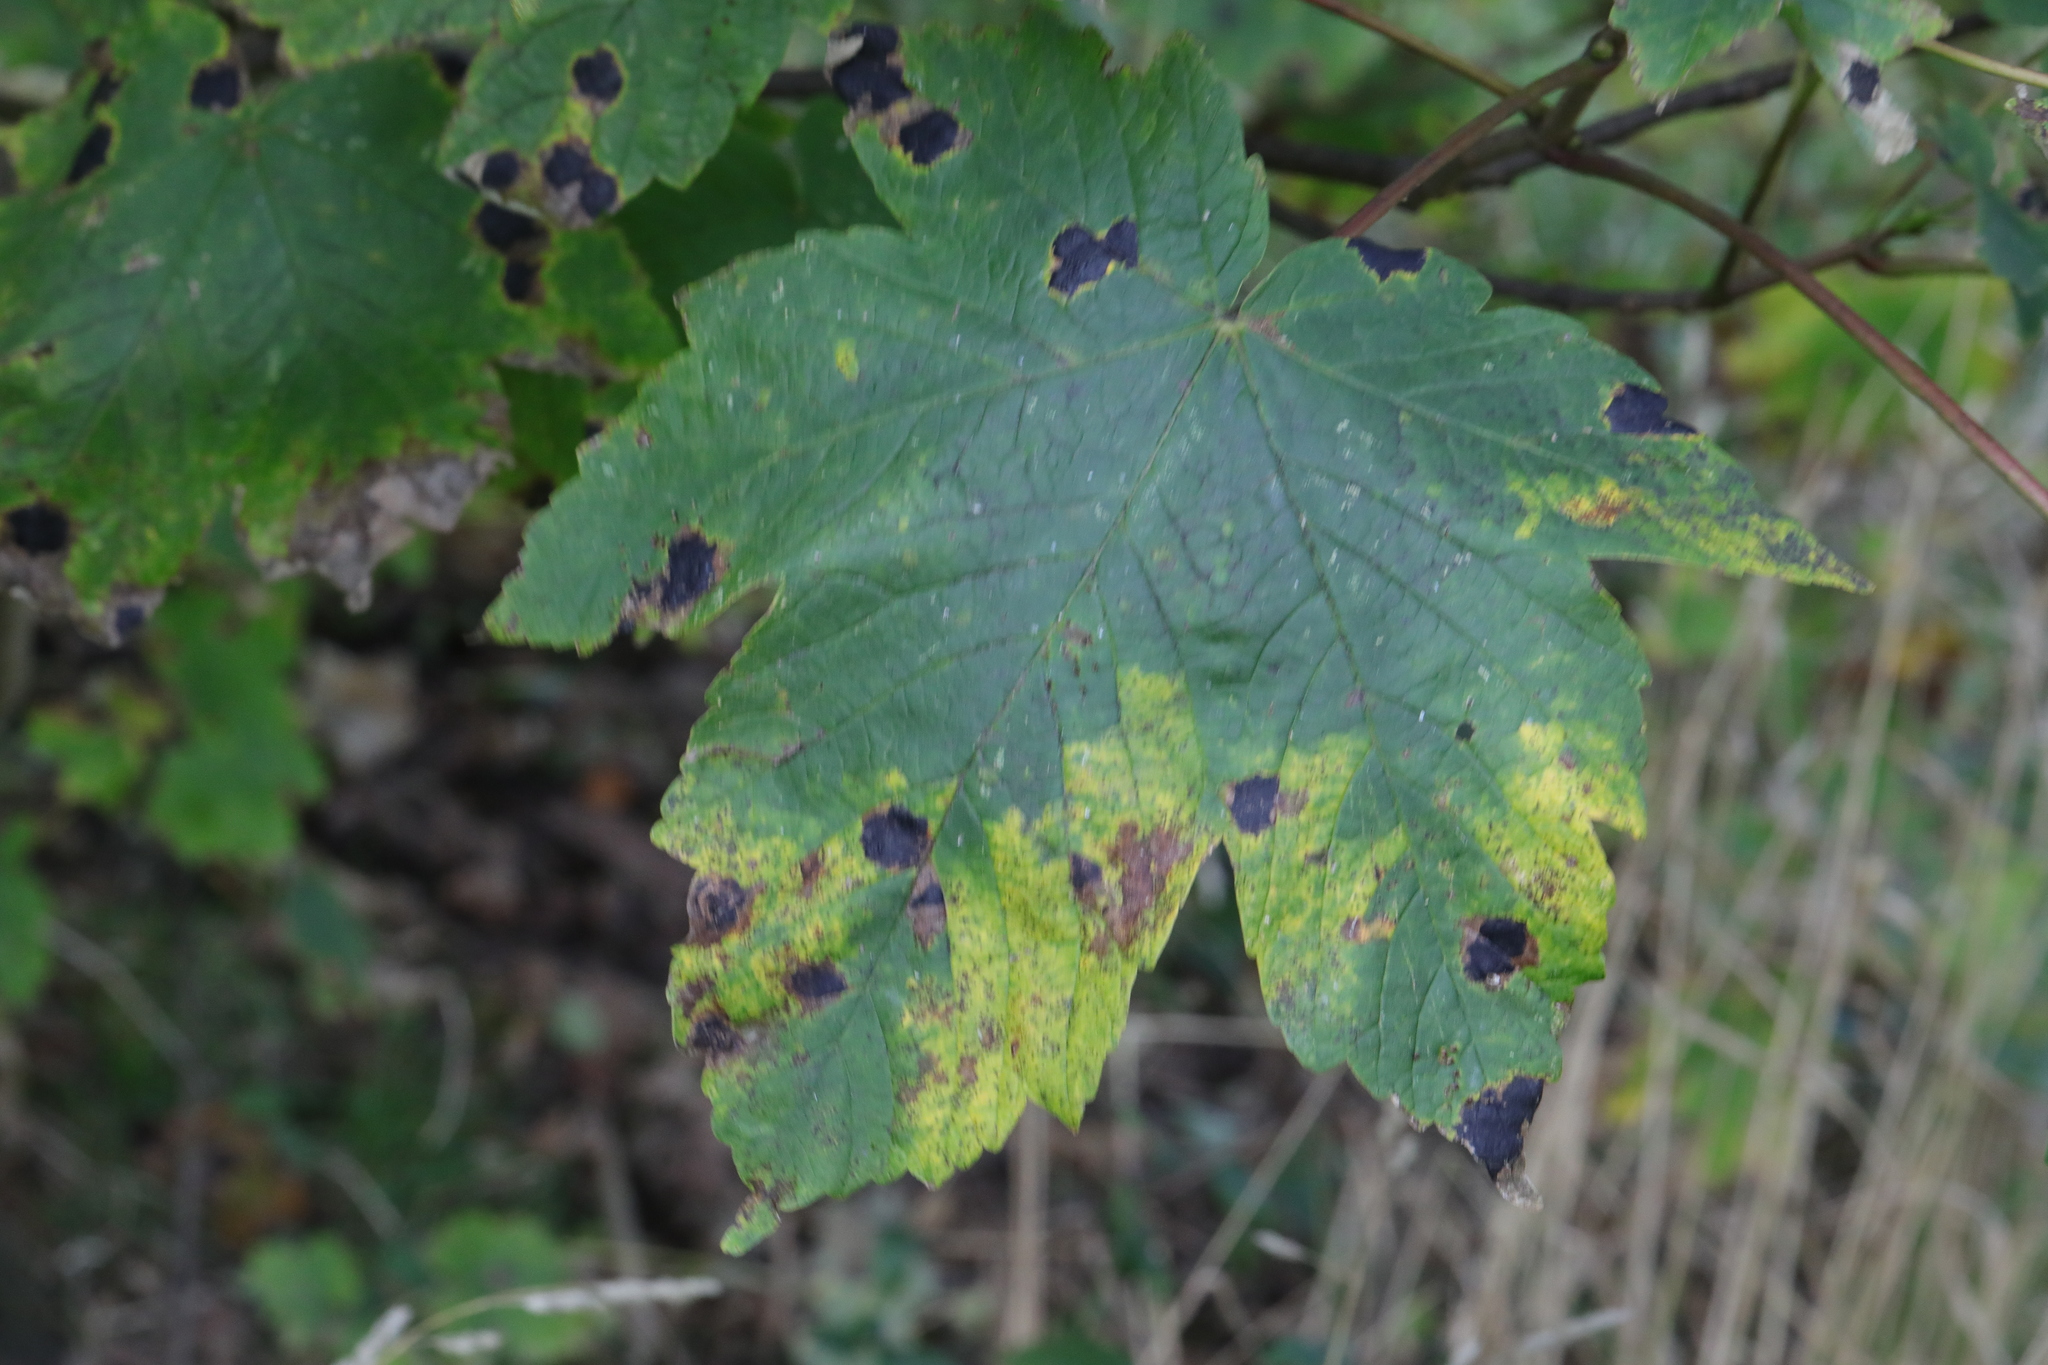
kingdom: Plantae
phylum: Tracheophyta
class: Magnoliopsida
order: Sapindales
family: Sapindaceae
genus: Acer
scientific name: Acer pseudoplatanus
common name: Sycamore
